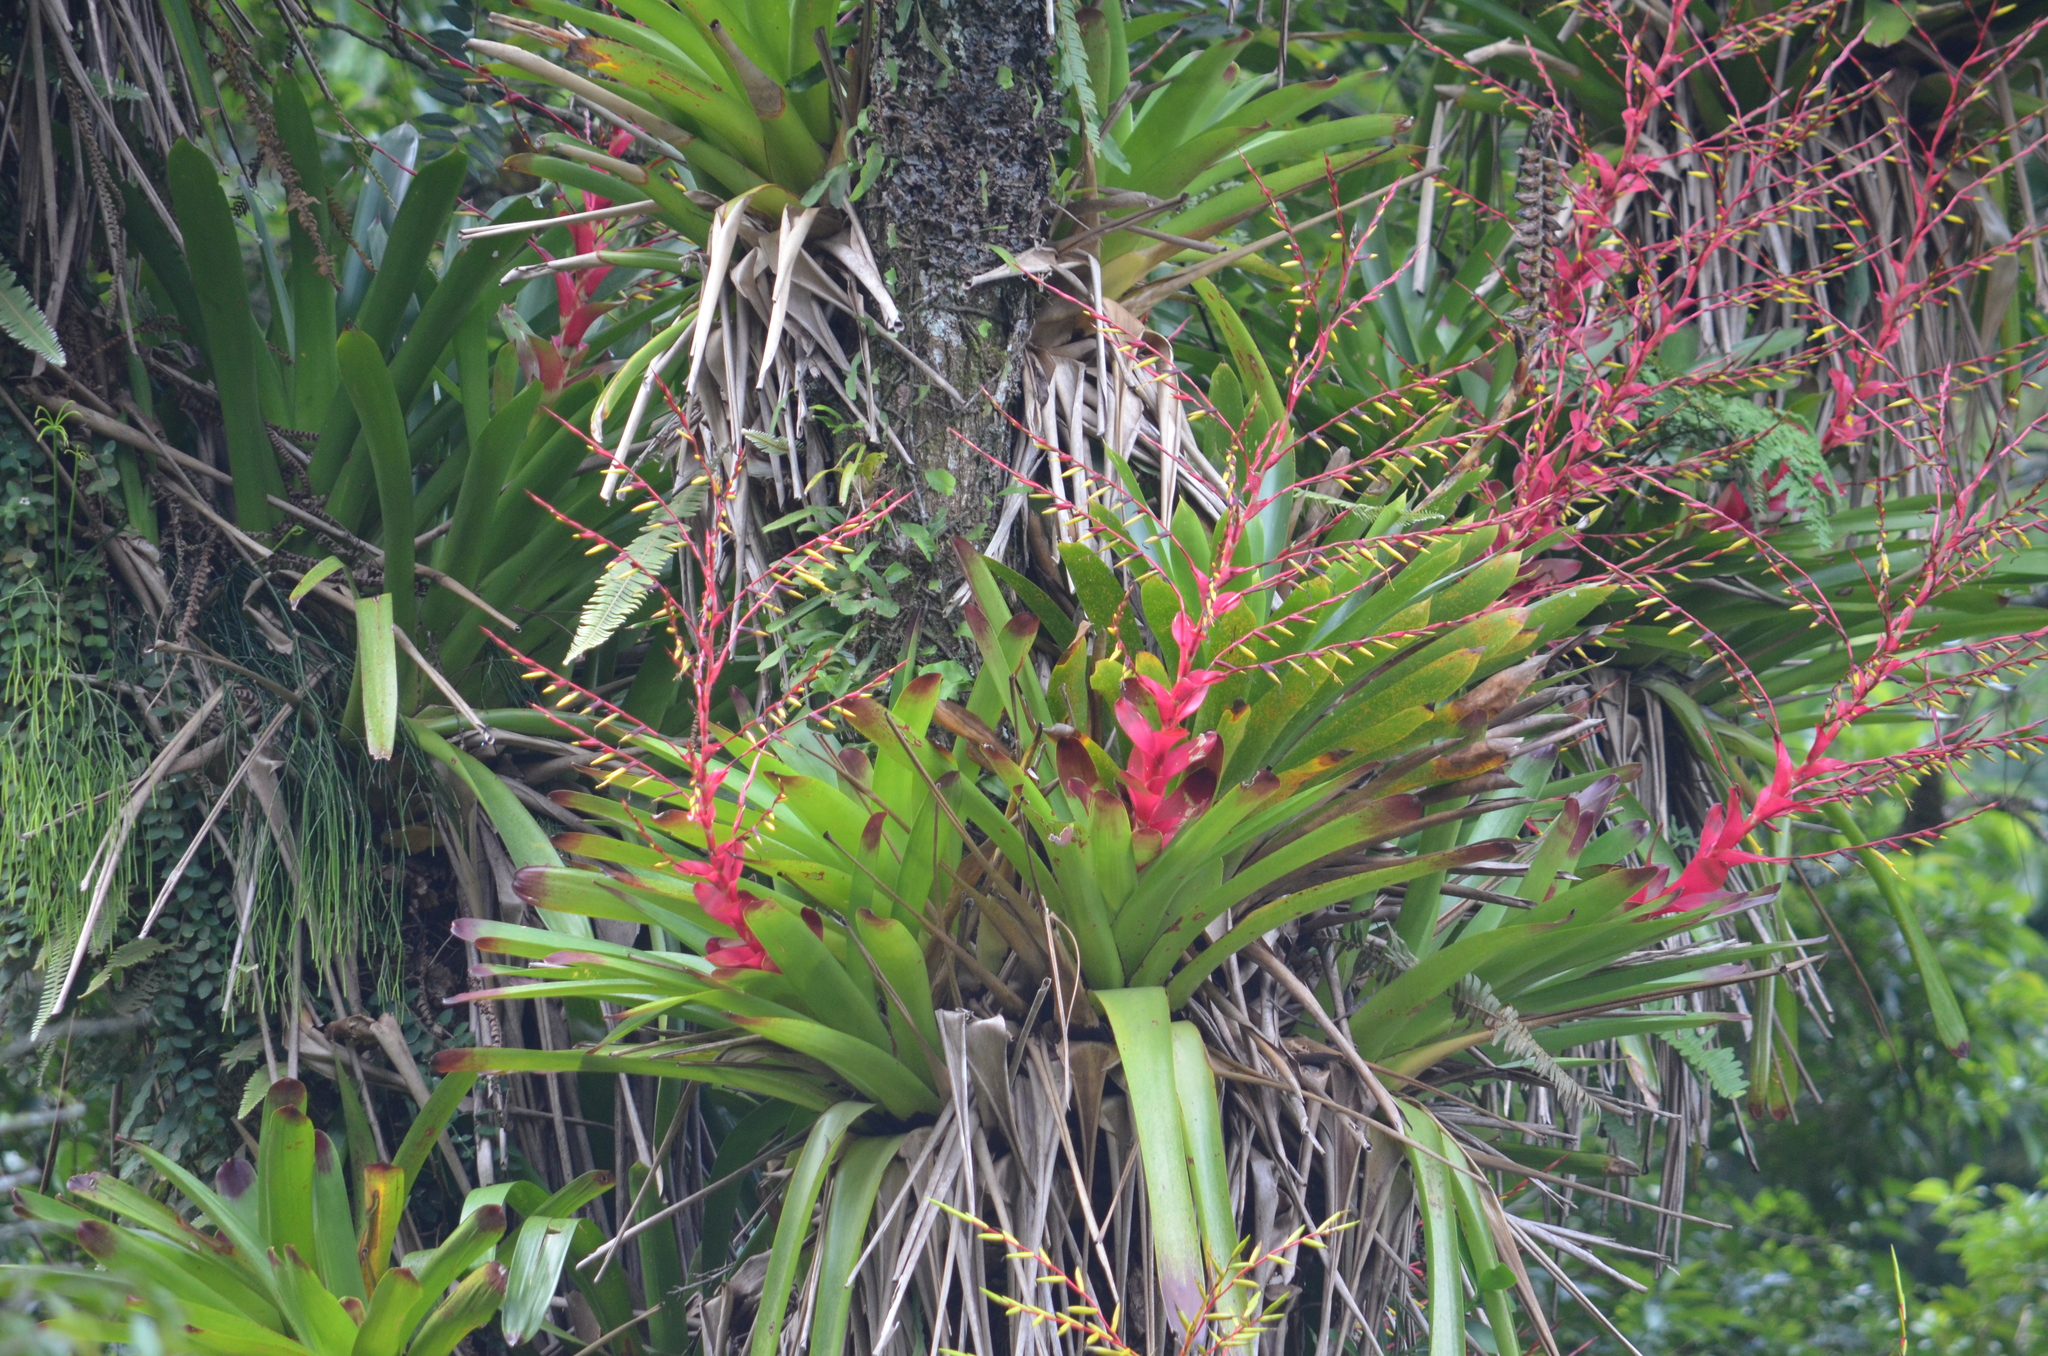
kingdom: Plantae
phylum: Tracheophyta
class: Liliopsida
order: Poales
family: Bromeliaceae
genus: Vriesea
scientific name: Vriesea philippocoburgi
